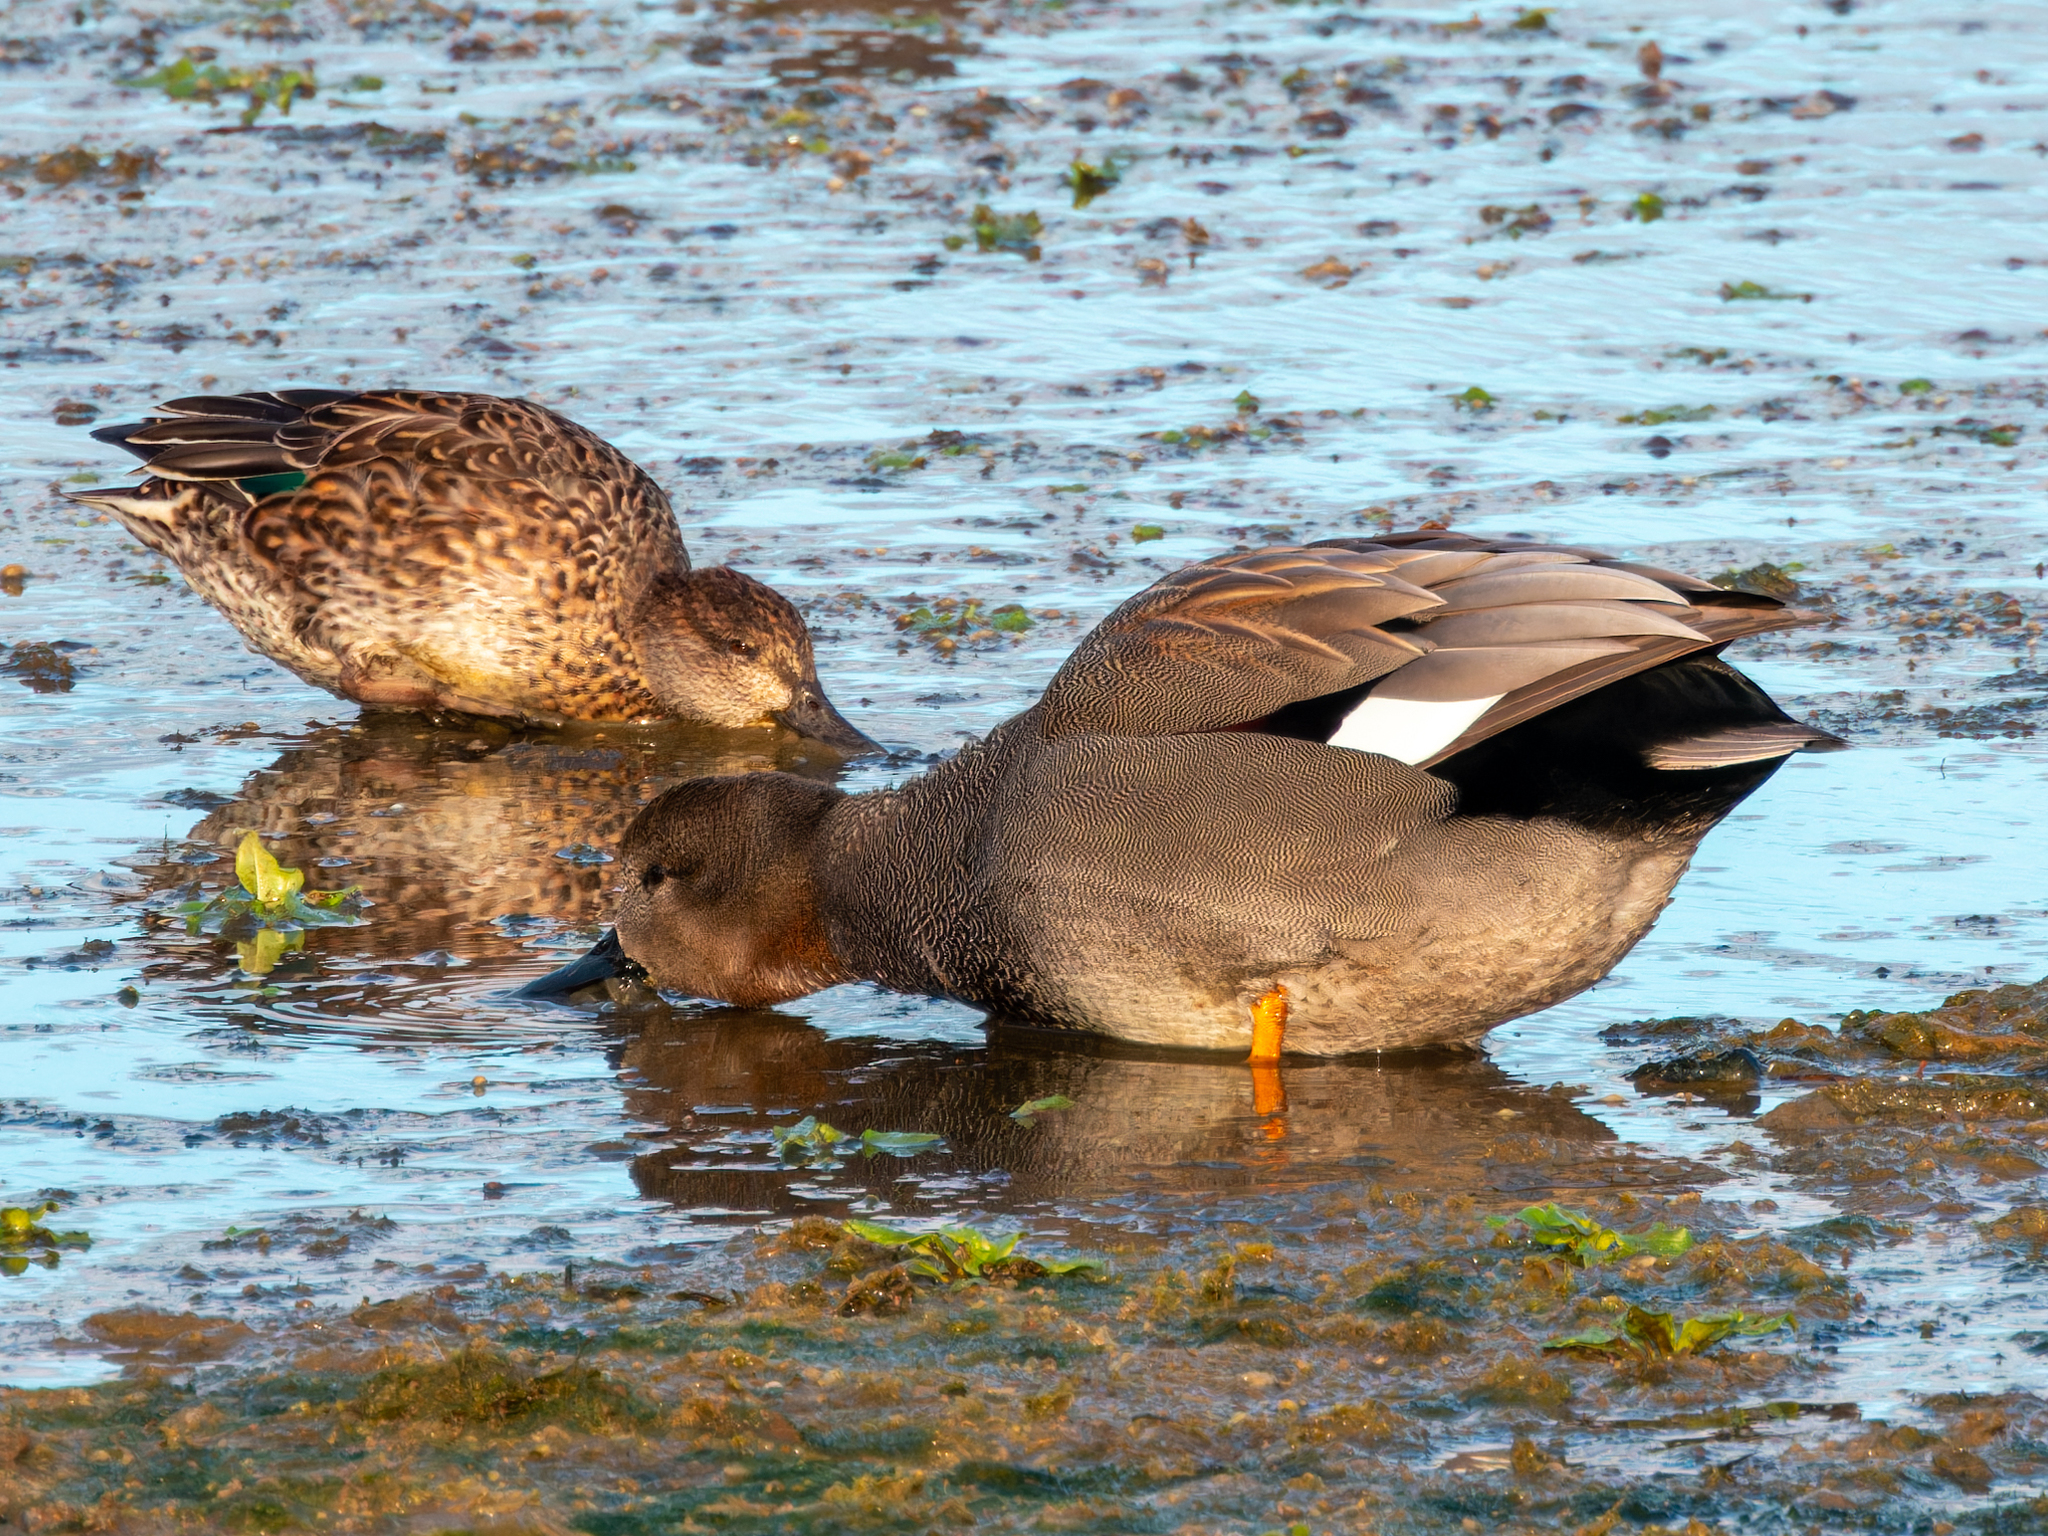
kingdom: Animalia
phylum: Chordata
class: Aves
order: Anseriformes
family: Anatidae
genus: Mareca
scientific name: Mareca strepera
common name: Gadwall
